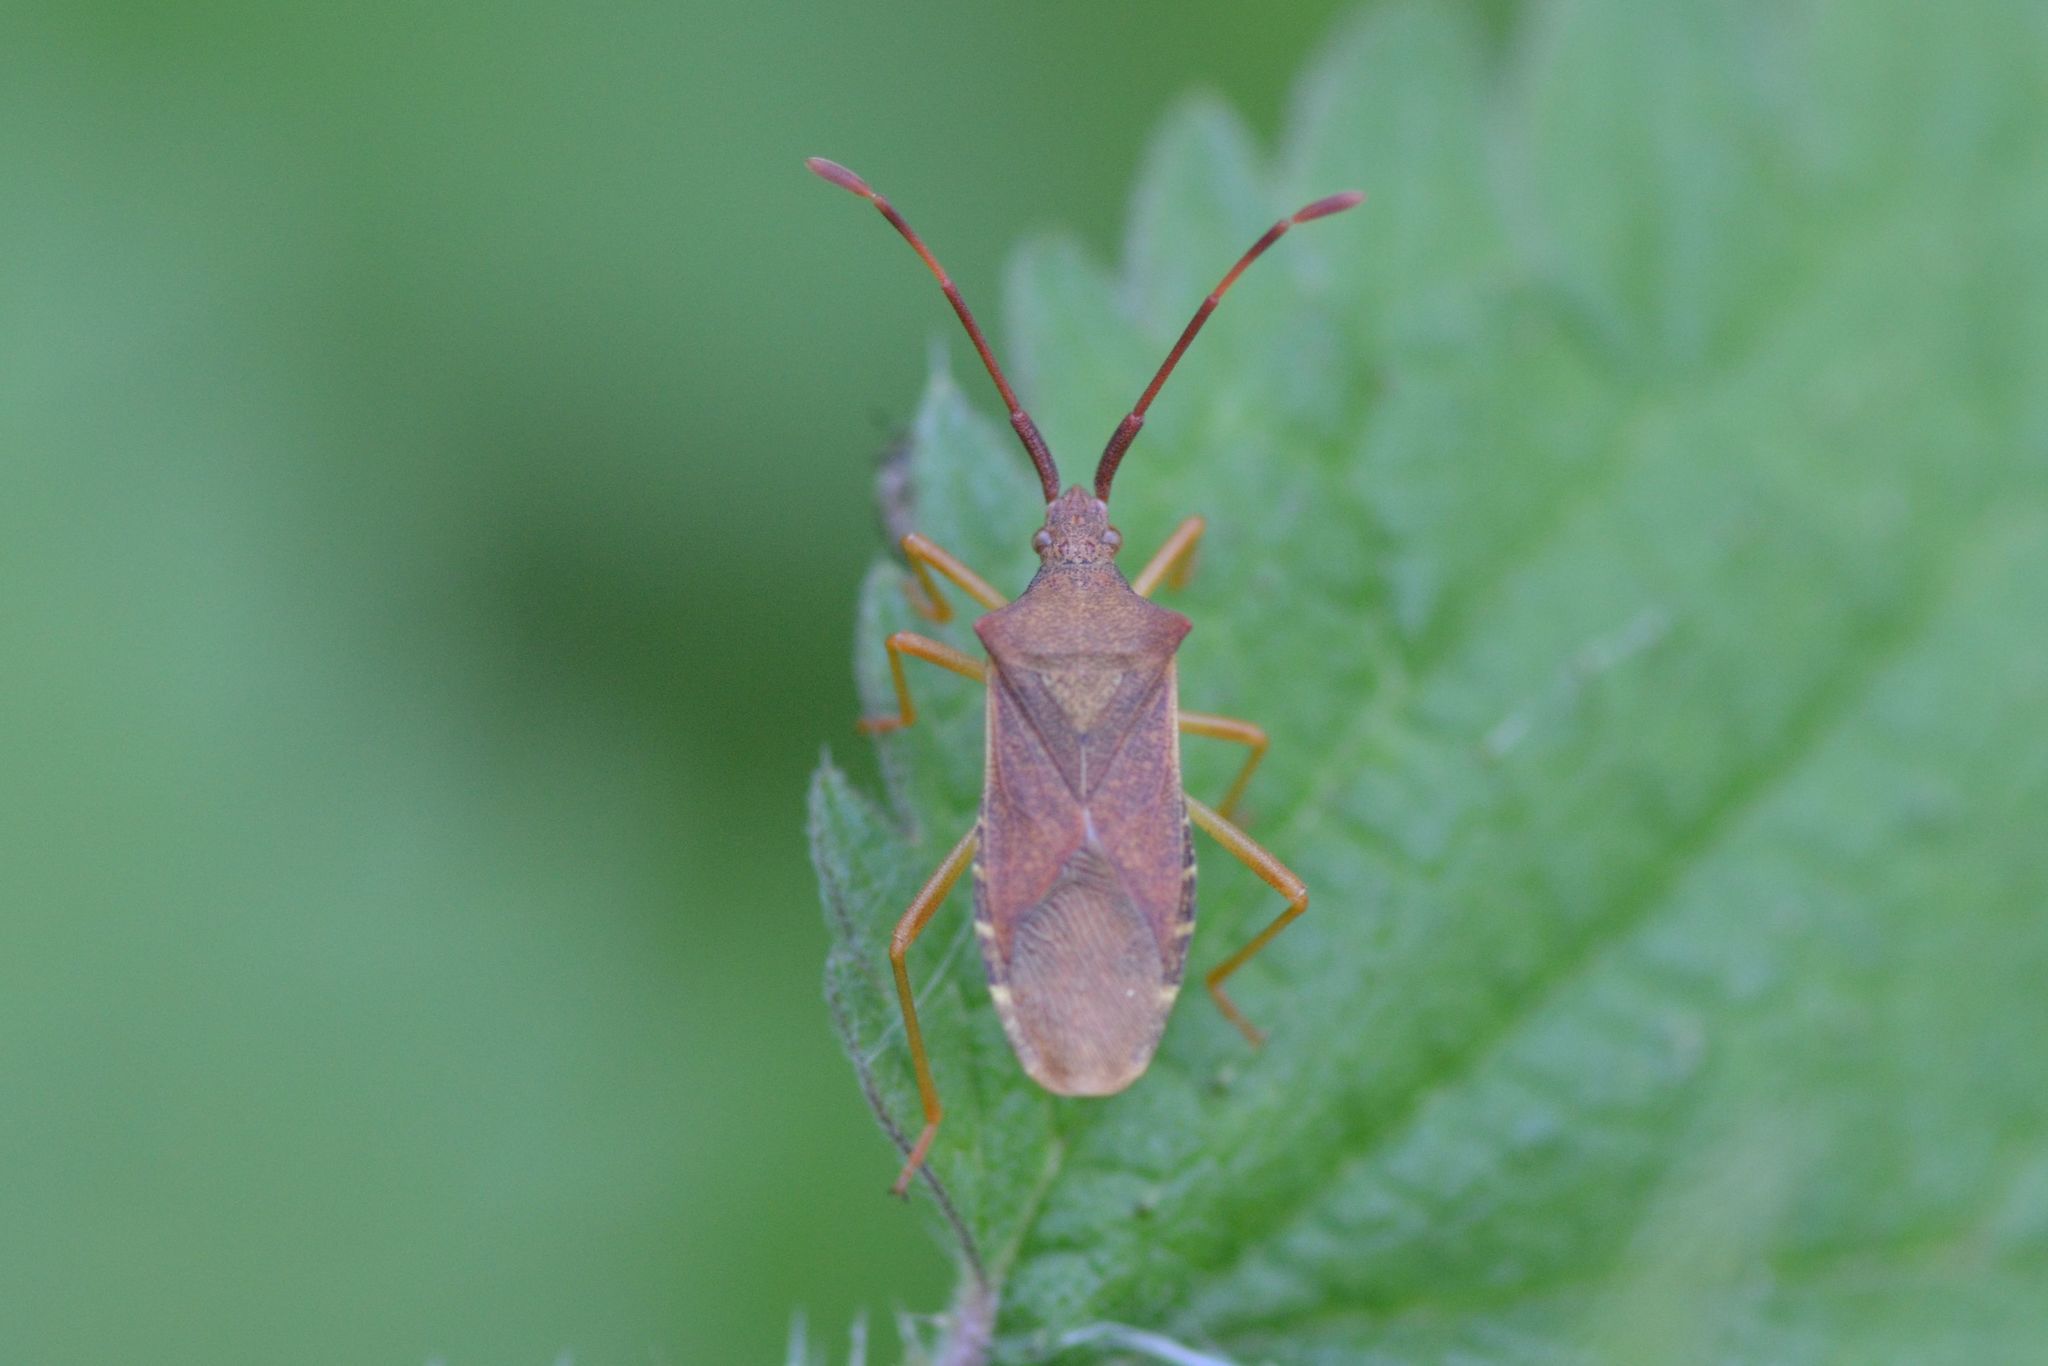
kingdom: Animalia
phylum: Arthropoda
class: Insecta
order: Hemiptera
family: Coreidae
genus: Gonocerus
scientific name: Gonocerus acuteangulatus
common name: Box bug
